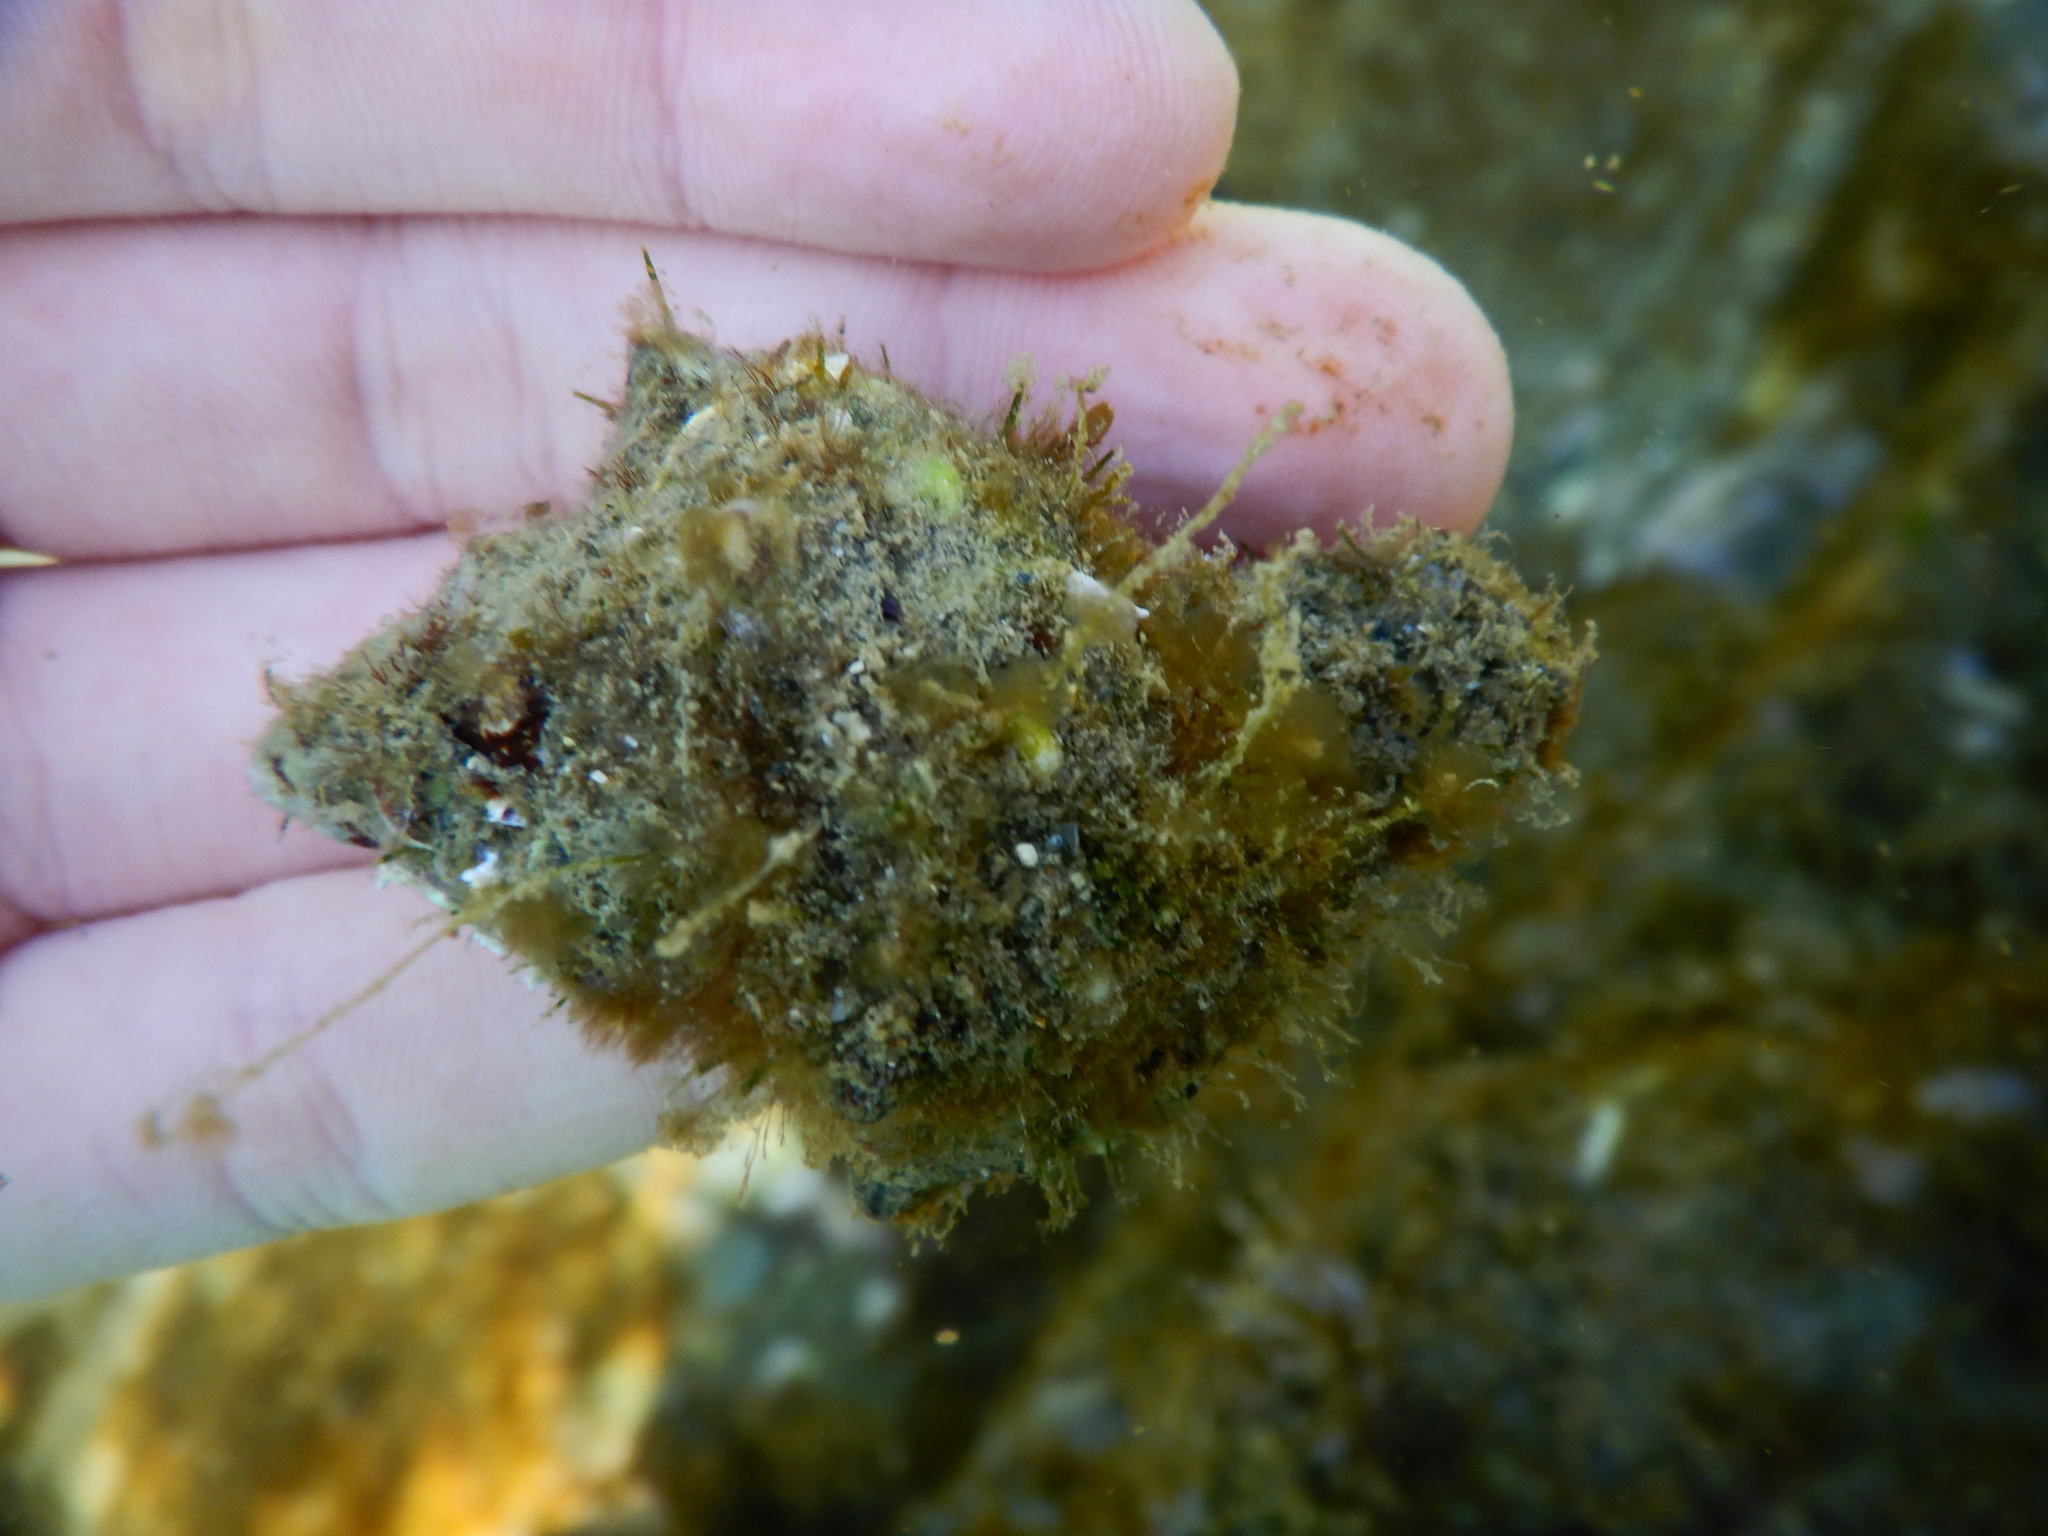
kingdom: Animalia
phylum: Mollusca
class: Gastropoda
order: Neogastropoda
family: Muricidae
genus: Hexaplex
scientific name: Hexaplex trunculus
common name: Banded dye-murex
